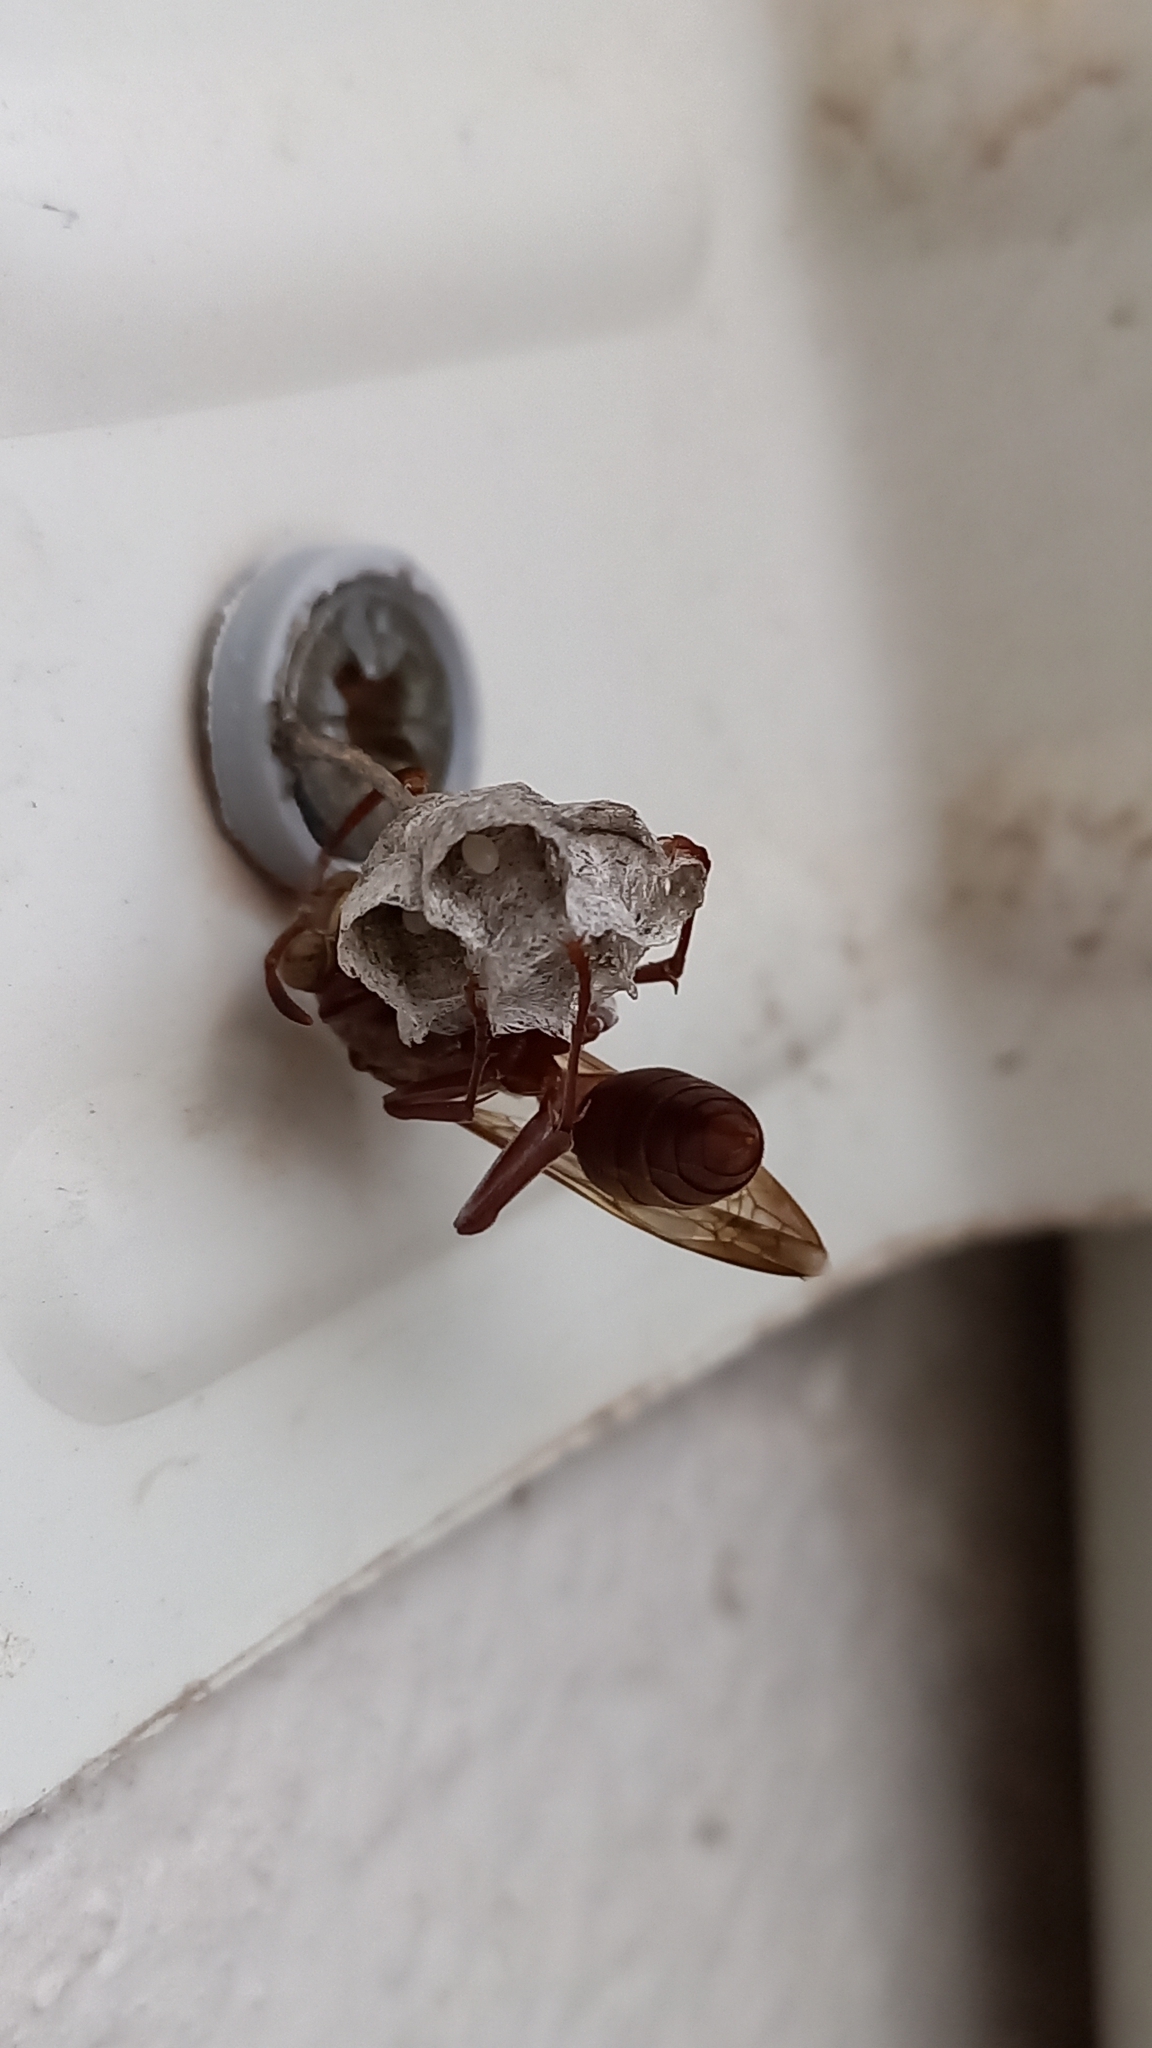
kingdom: Animalia
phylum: Arthropoda
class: Insecta
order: Hymenoptera
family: Eumenidae
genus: Polistes
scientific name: Polistes
